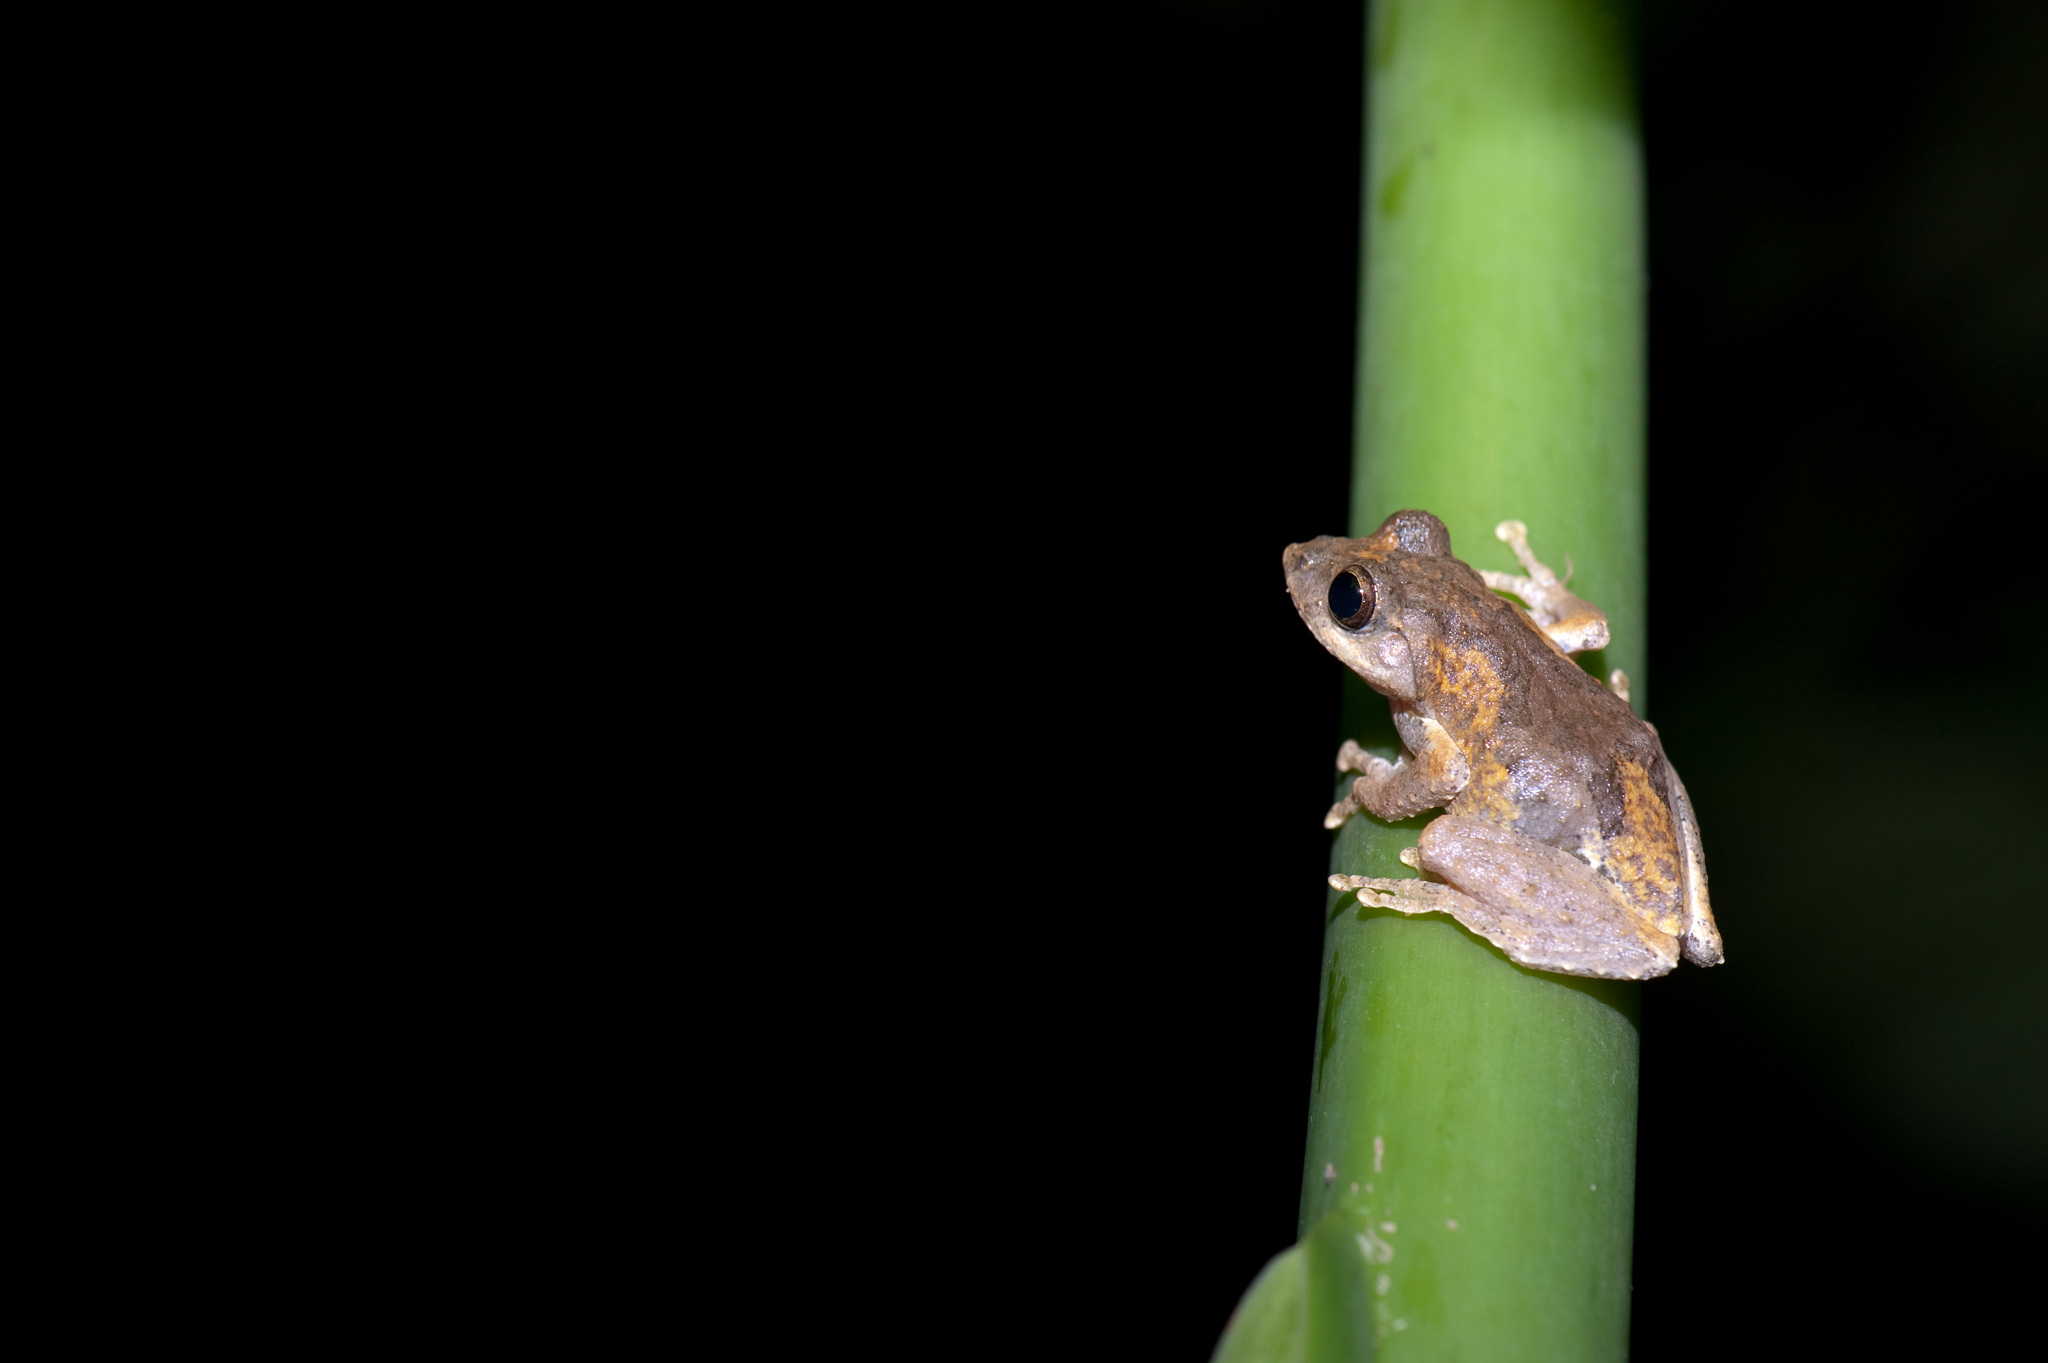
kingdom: Animalia
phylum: Chordata
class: Amphibia
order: Anura
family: Rhacophoridae
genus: Kurixalus
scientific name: Kurixalus idiootocus
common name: Temple treefrog
